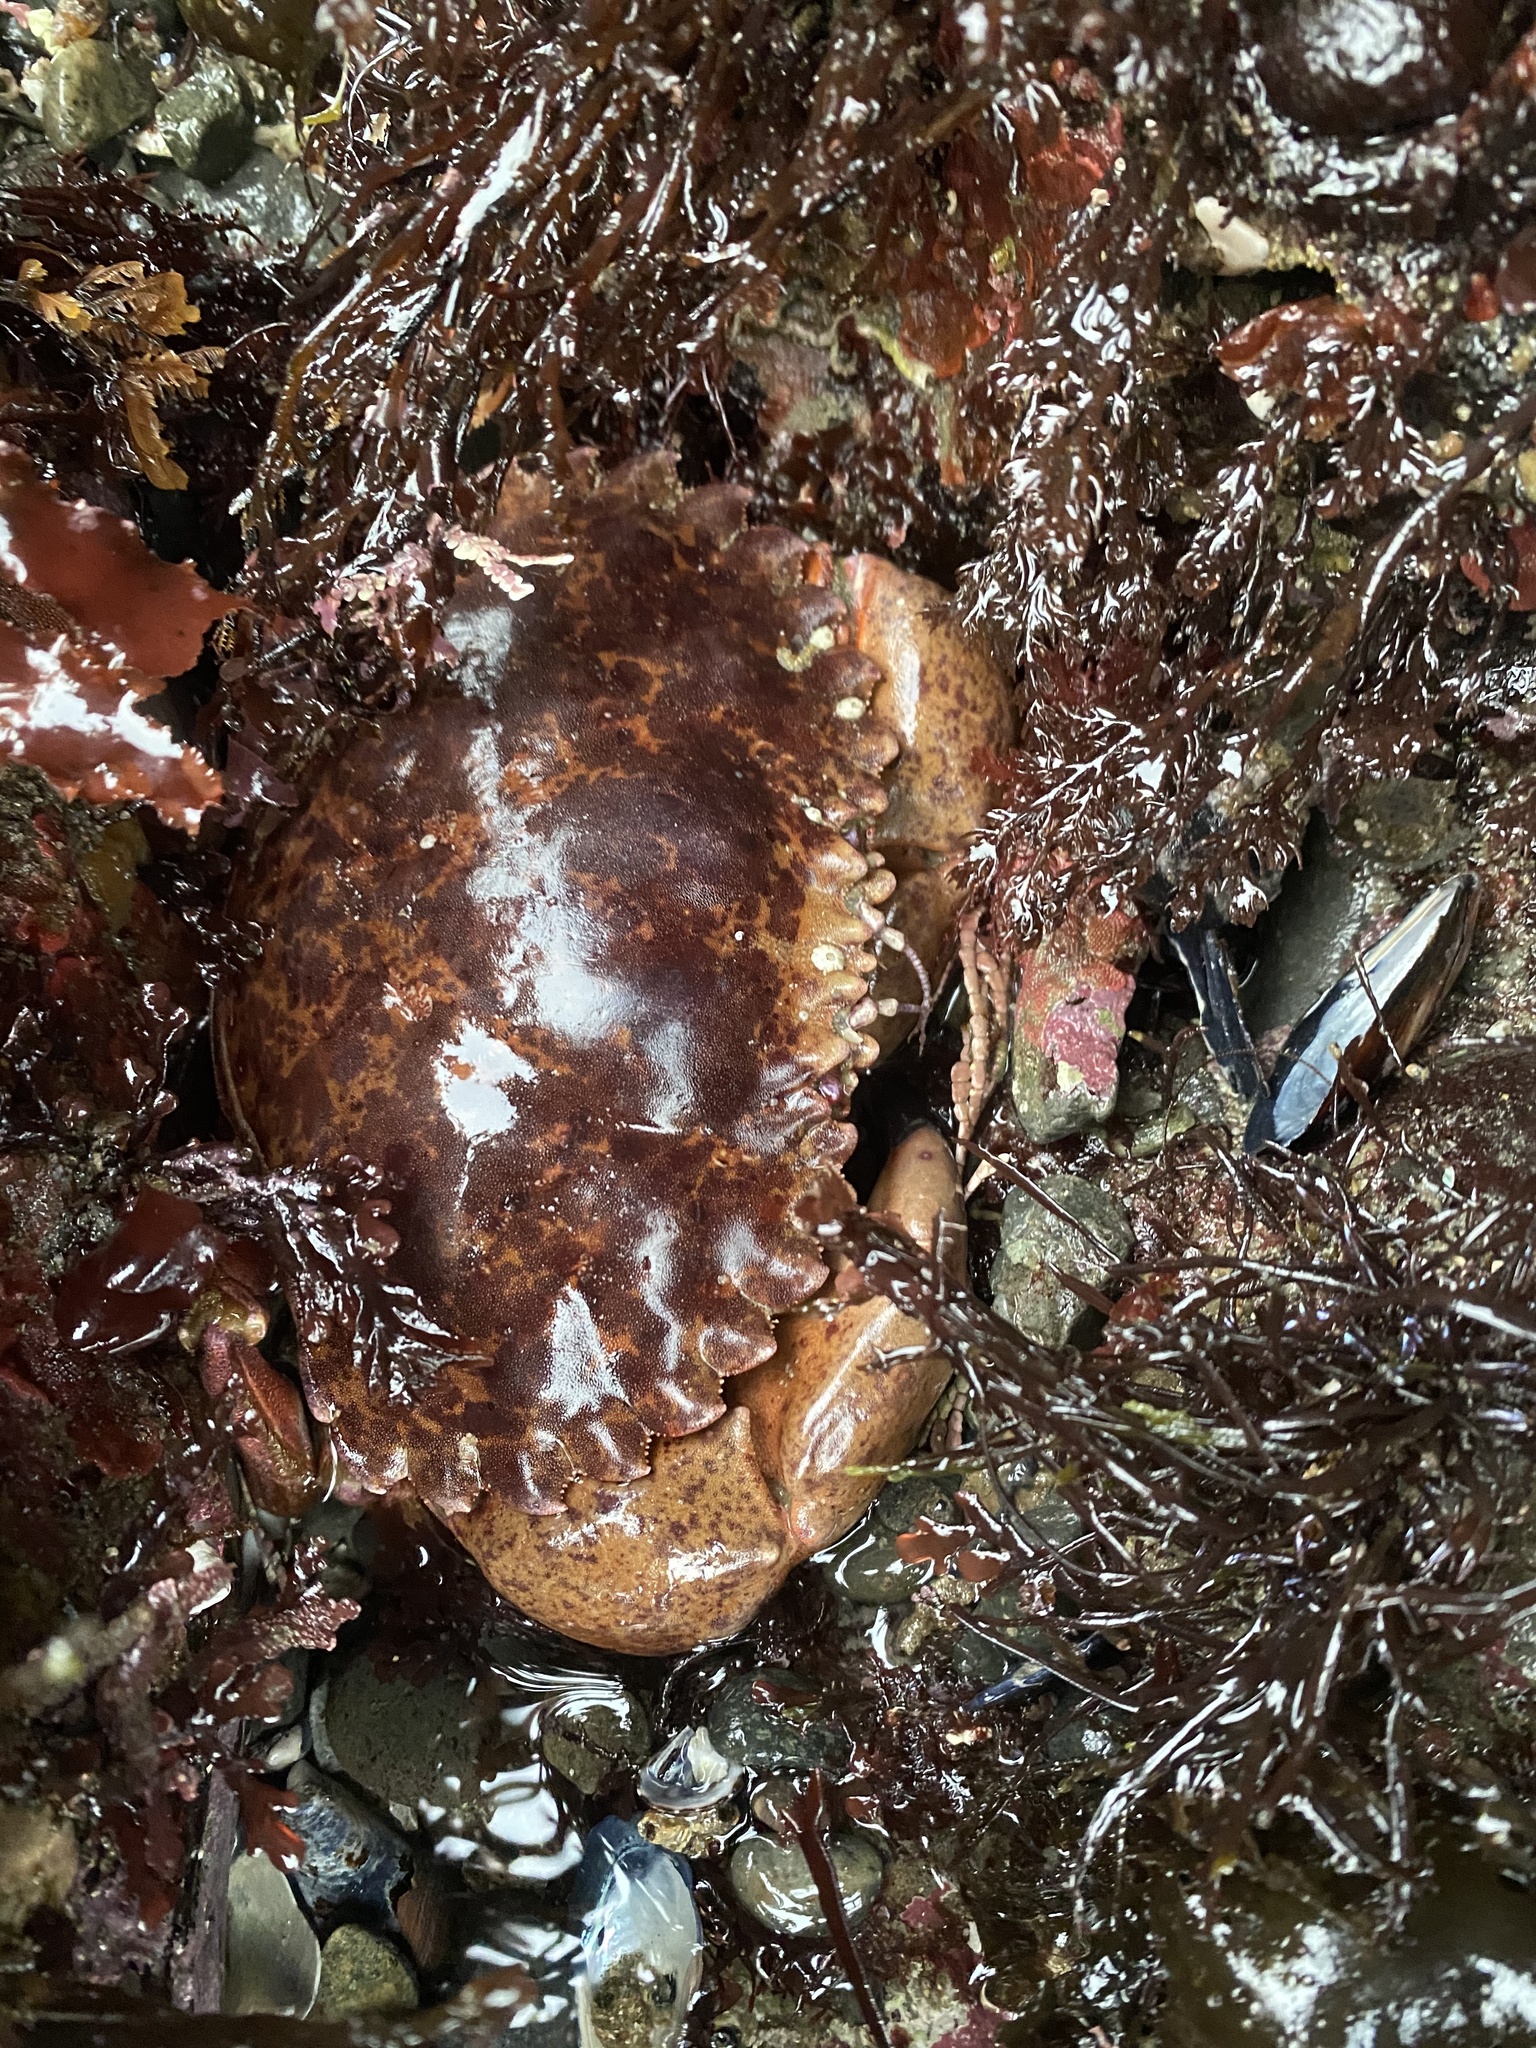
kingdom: Animalia
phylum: Arthropoda
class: Malacostraca
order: Decapoda
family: Cancridae
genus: Romaleon
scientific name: Romaleon antennarium
